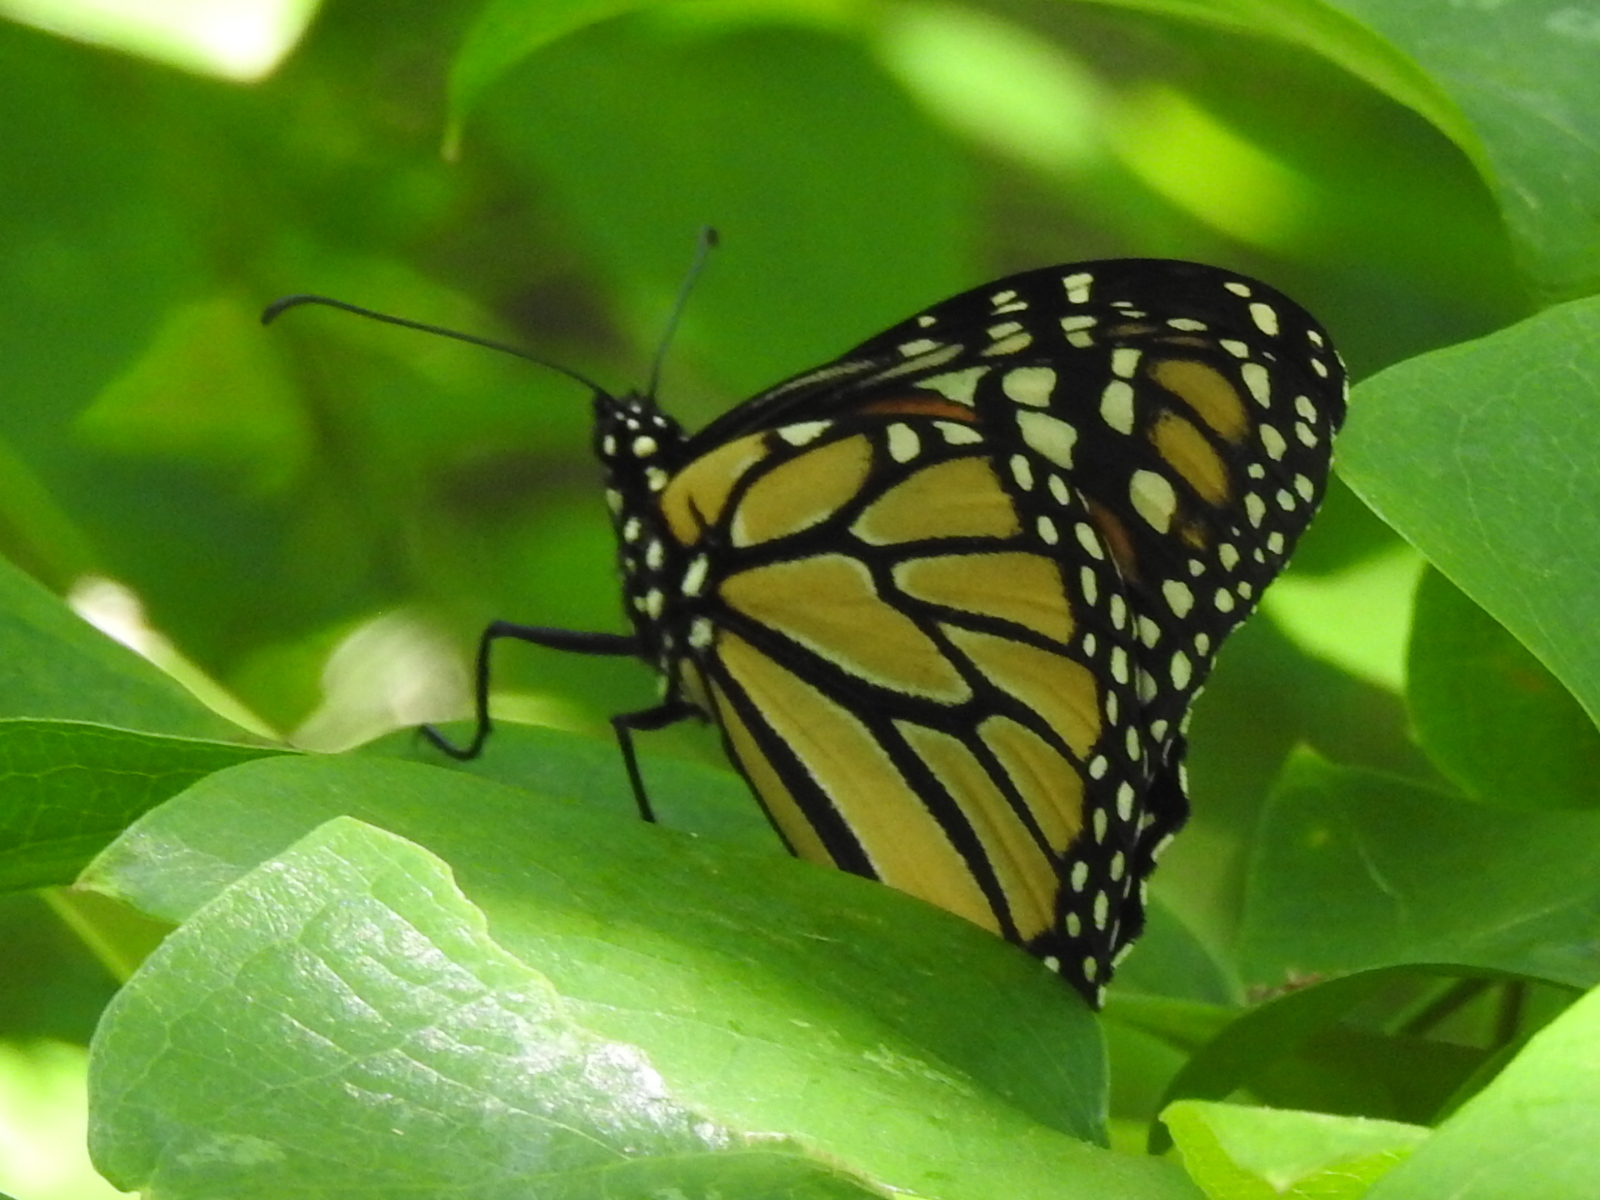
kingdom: Animalia
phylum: Arthropoda
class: Insecta
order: Lepidoptera
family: Nymphalidae
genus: Danaus
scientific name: Danaus plexippus
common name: Monarch
